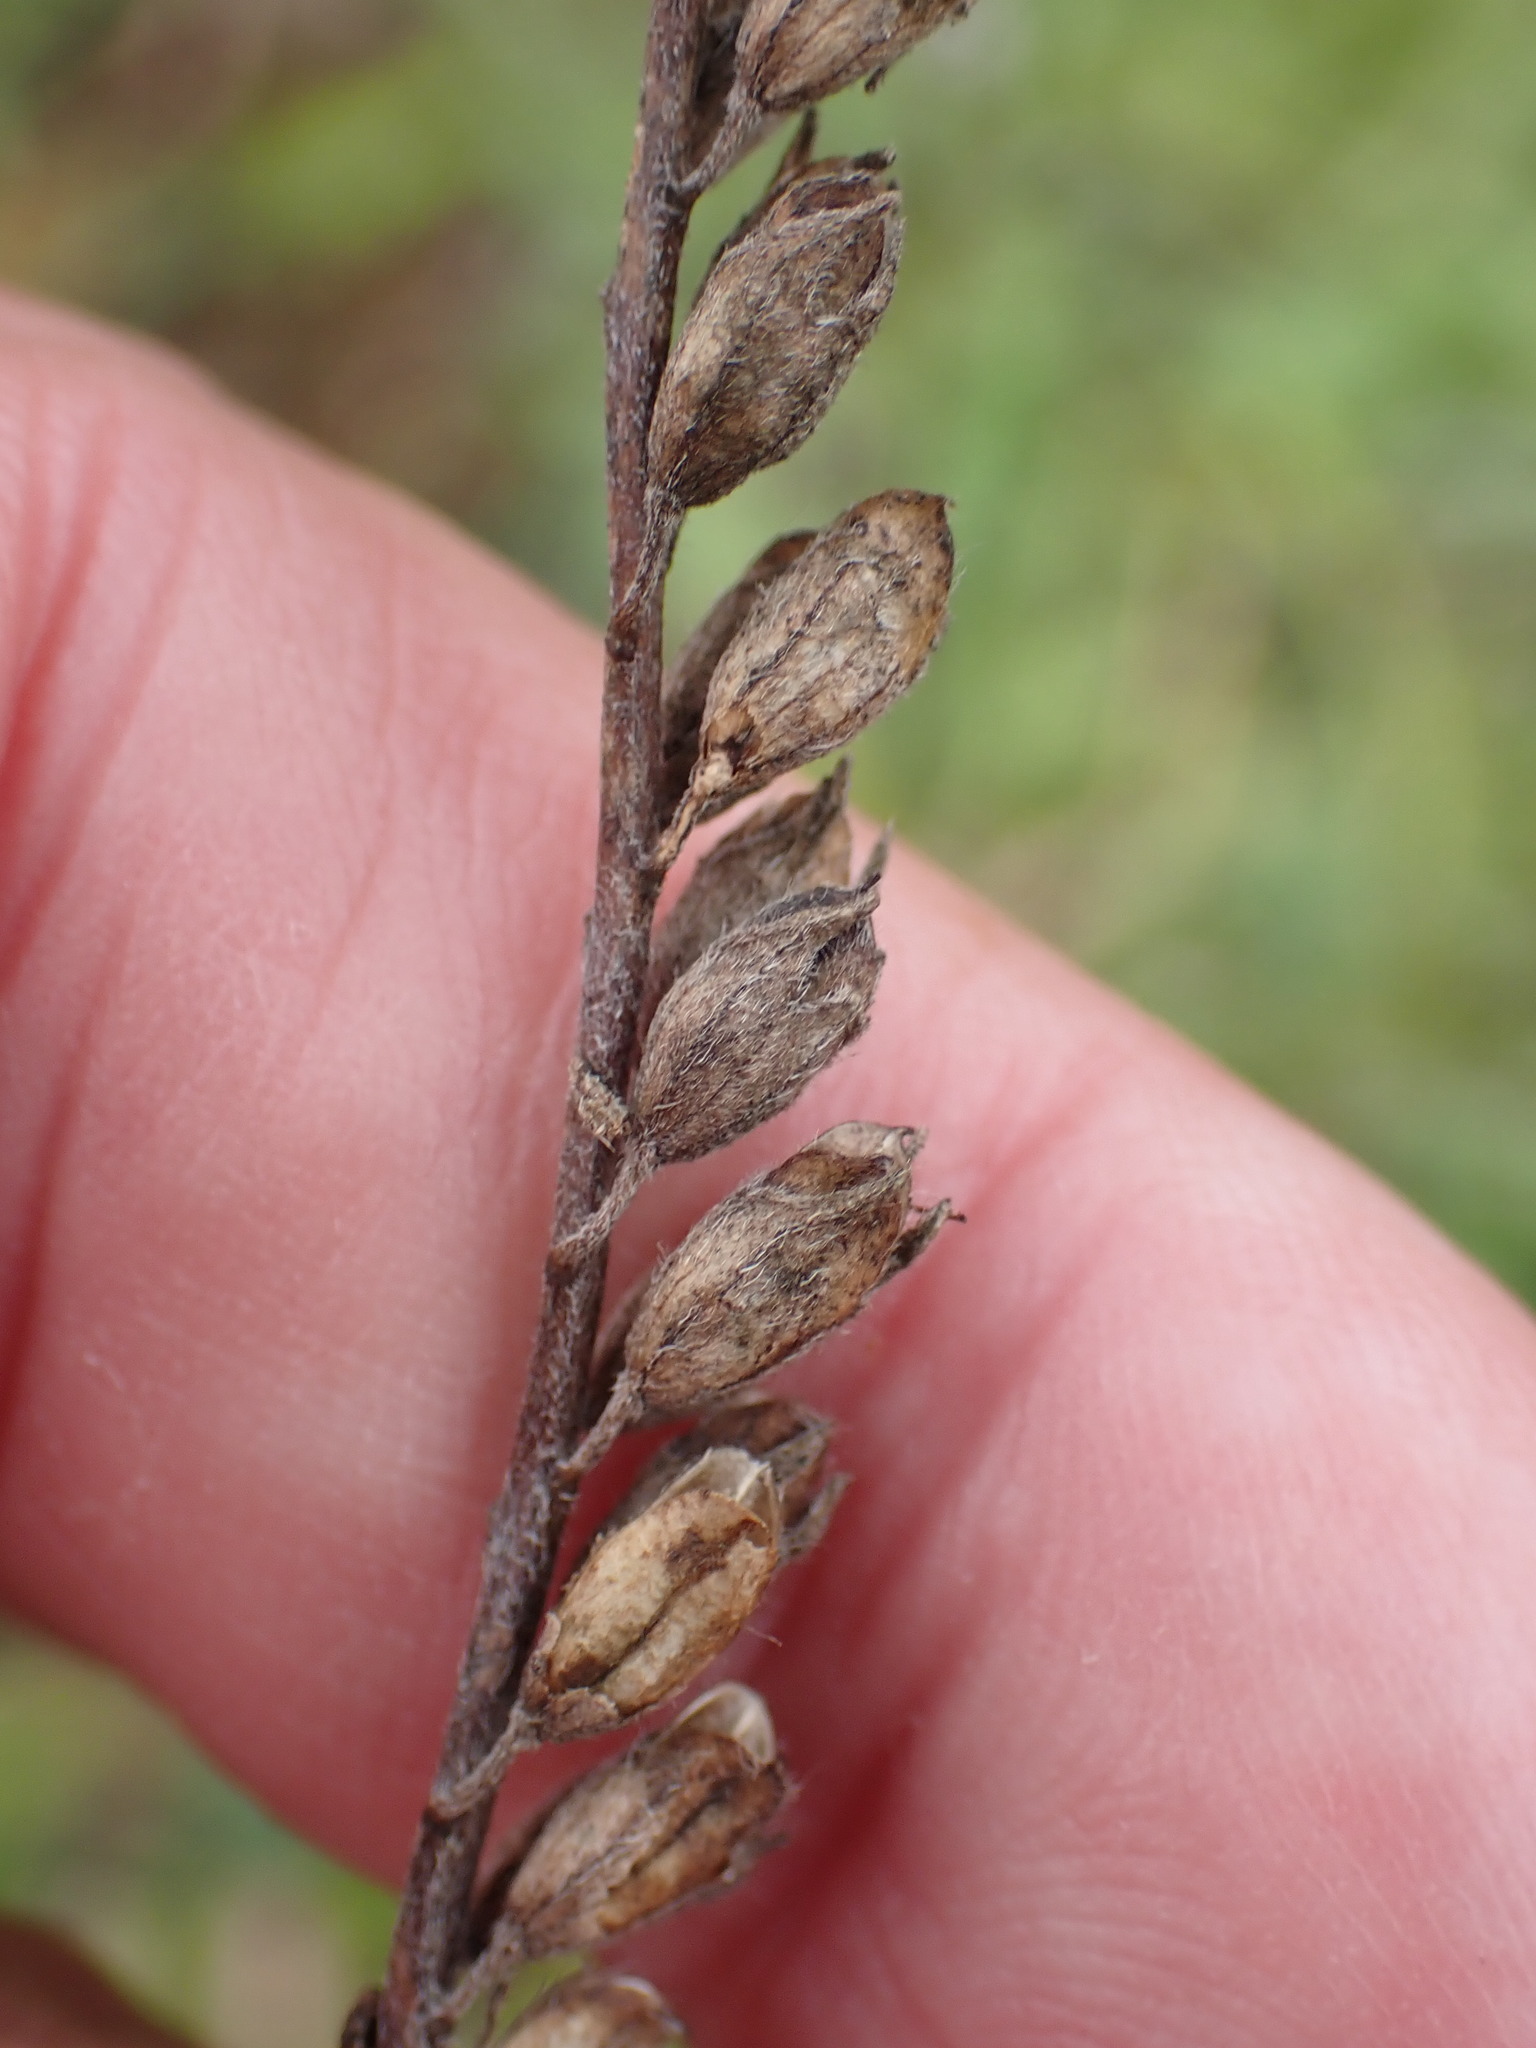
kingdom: Plantae
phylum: Tracheophyta
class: Magnoliopsida
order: Lamiales
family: Orobanchaceae
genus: Odontites
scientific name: Odontites vulgaris
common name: Broomrape
